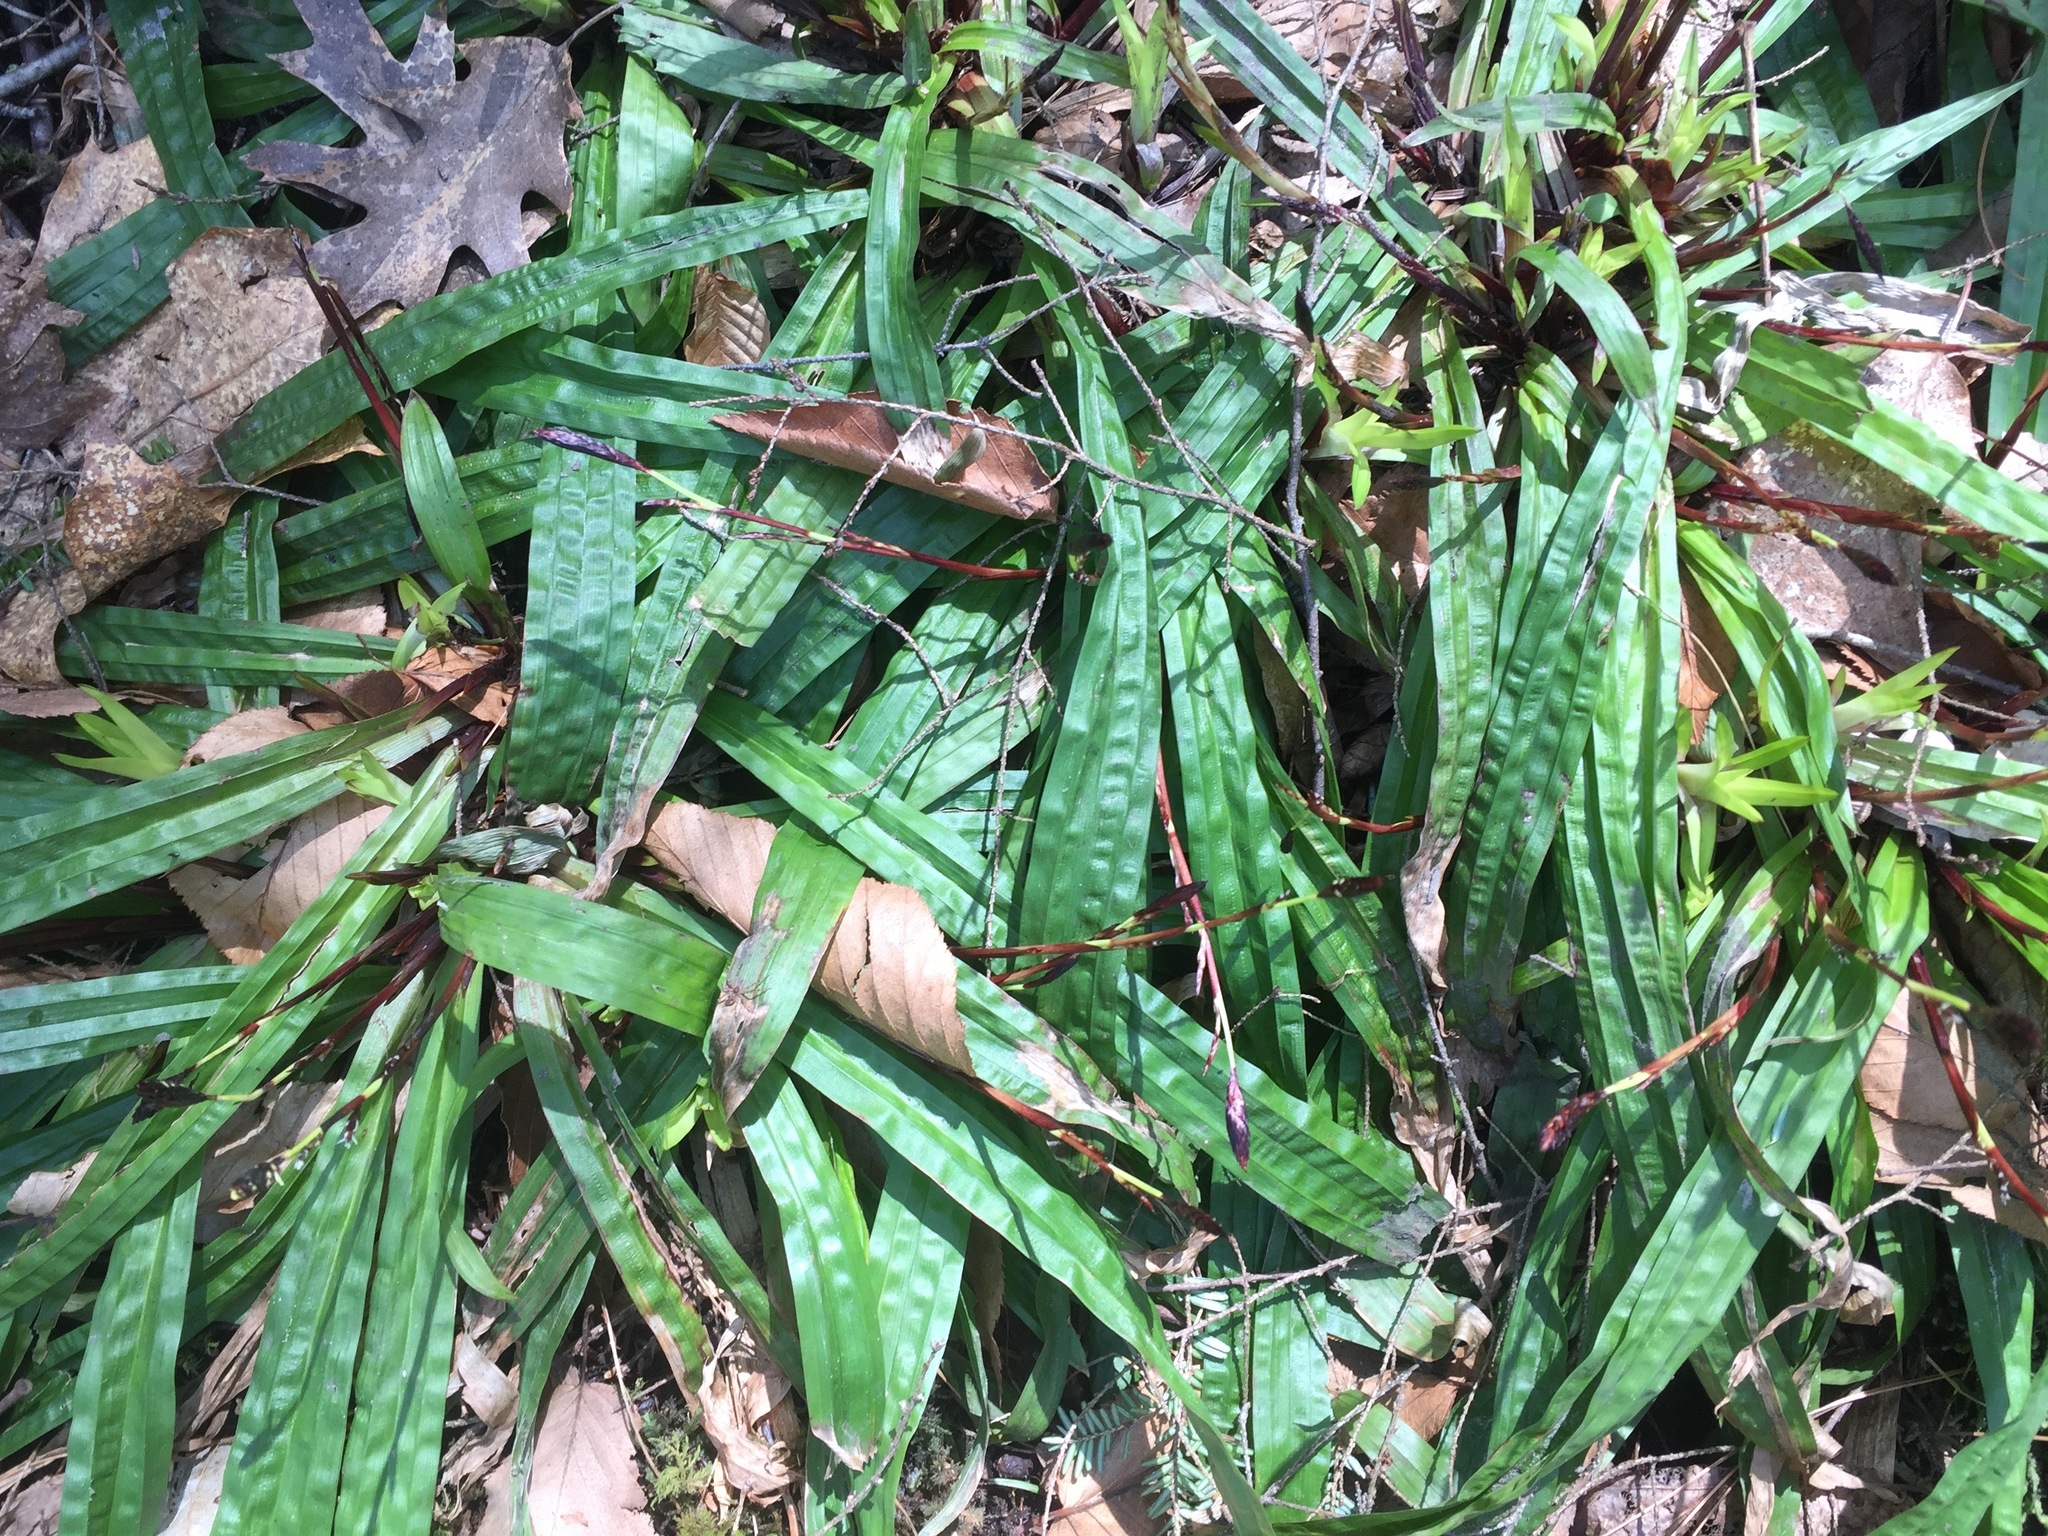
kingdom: Plantae
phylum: Tracheophyta
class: Liliopsida
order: Poales
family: Cyperaceae
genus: Carex
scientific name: Carex plantaginea
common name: Plantain-leaved sedge
